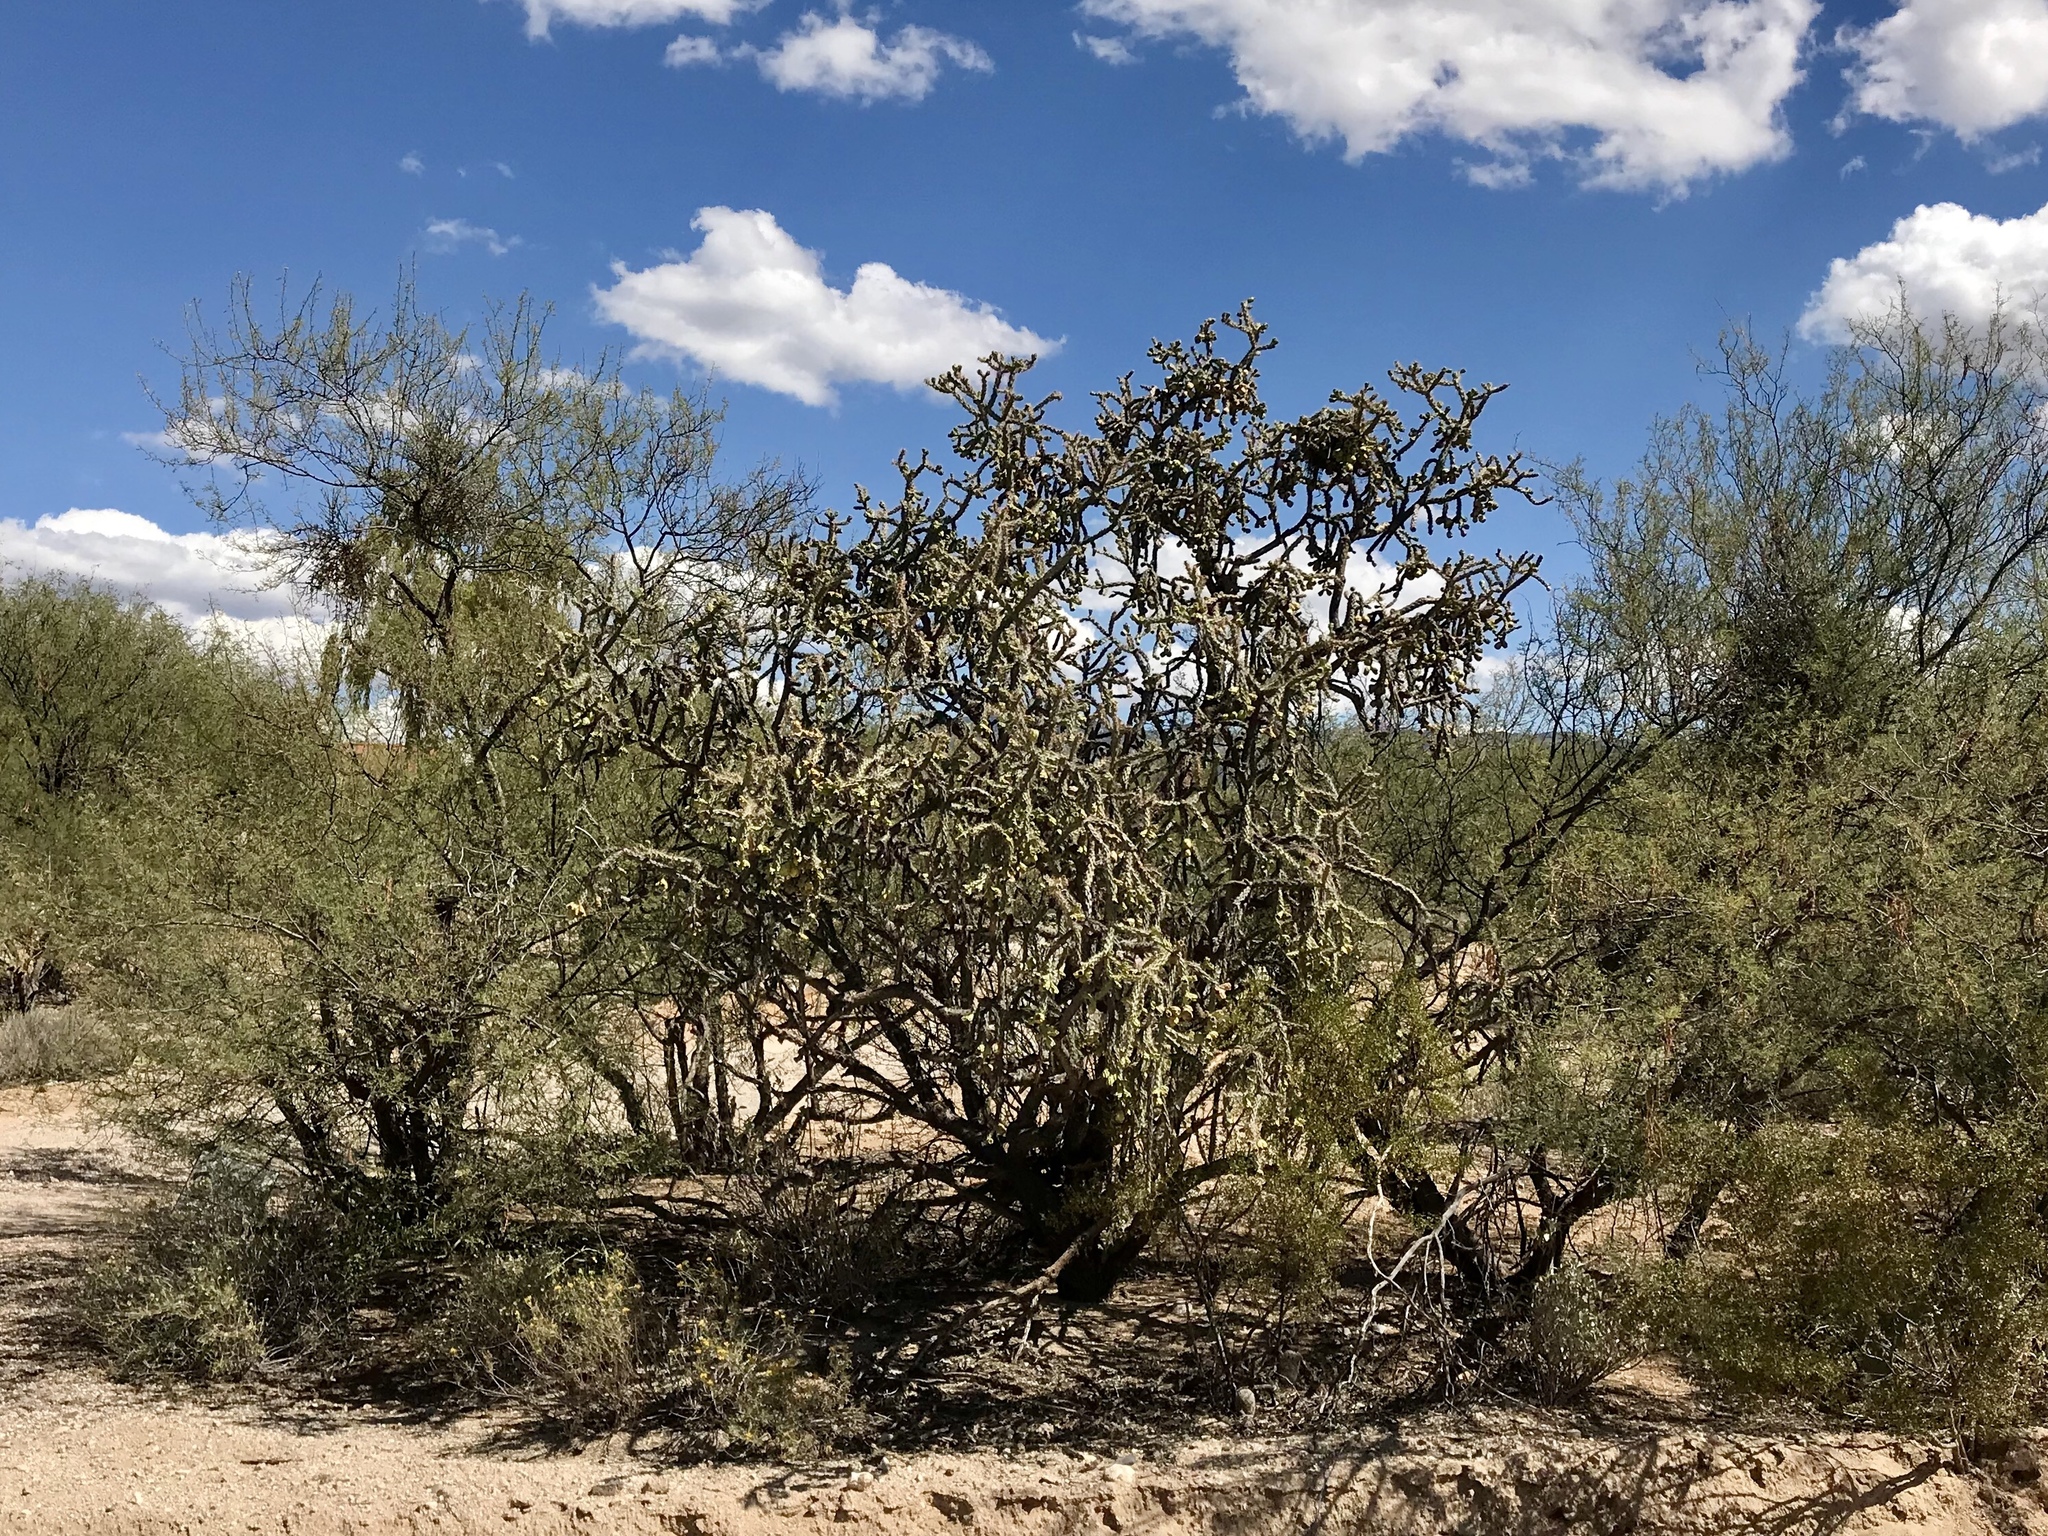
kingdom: Plantae
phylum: Tracheophyta
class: Magnoliopsida
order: Caryophyllales
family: Cactaceae
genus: Cylindropuntia
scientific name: Cylindropuntia thurberi
